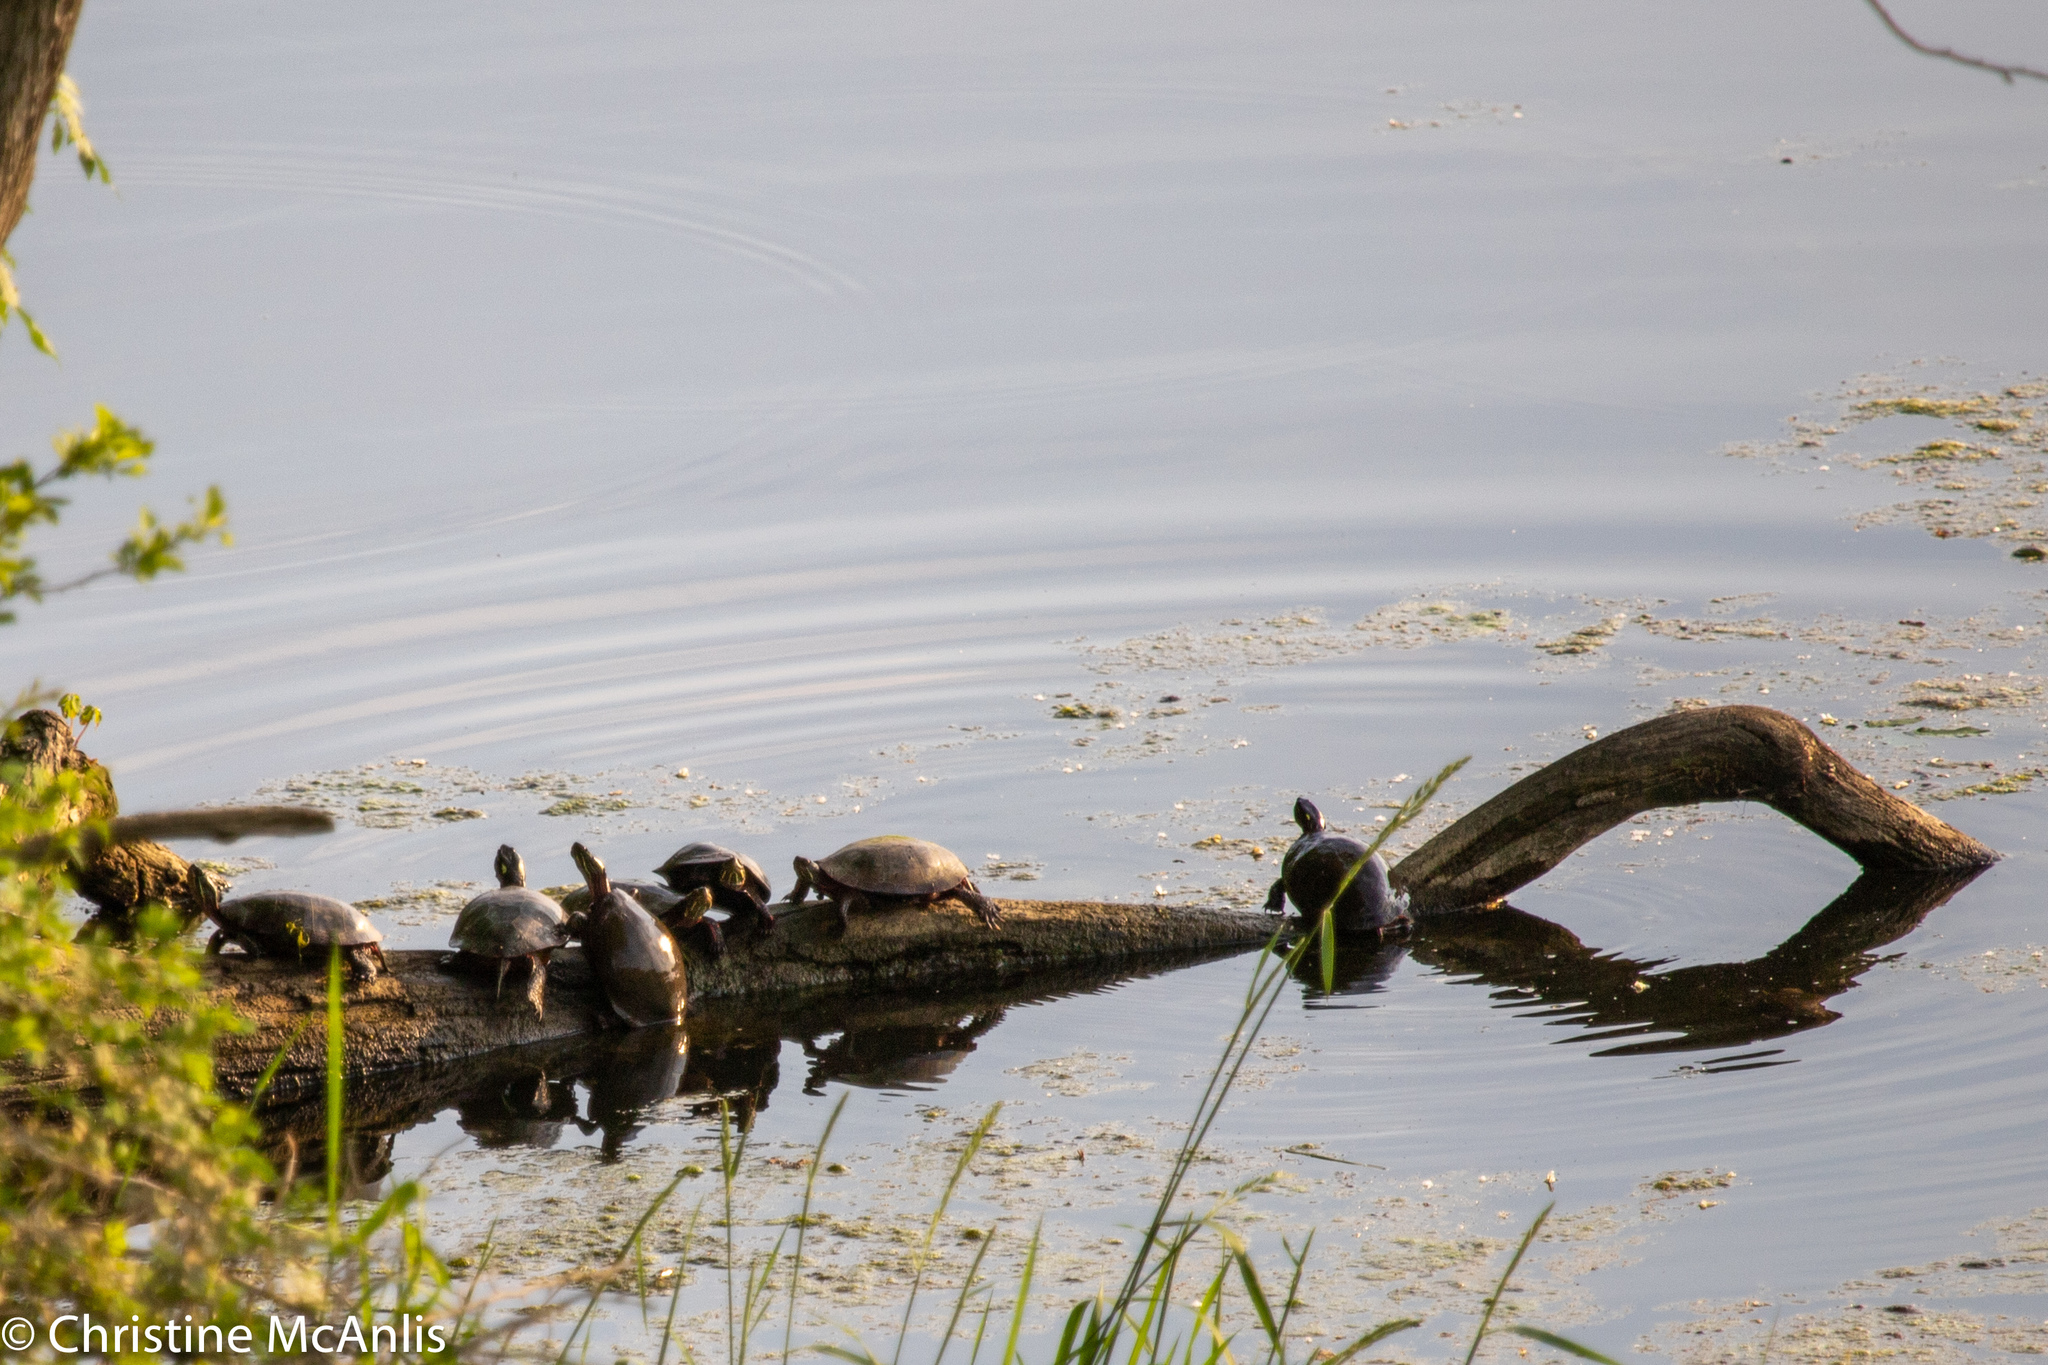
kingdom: Animalia
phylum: Chordata
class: Testudines
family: Emydidae
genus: Chrysemys
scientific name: Chrysemys picta
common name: Painted turtle
